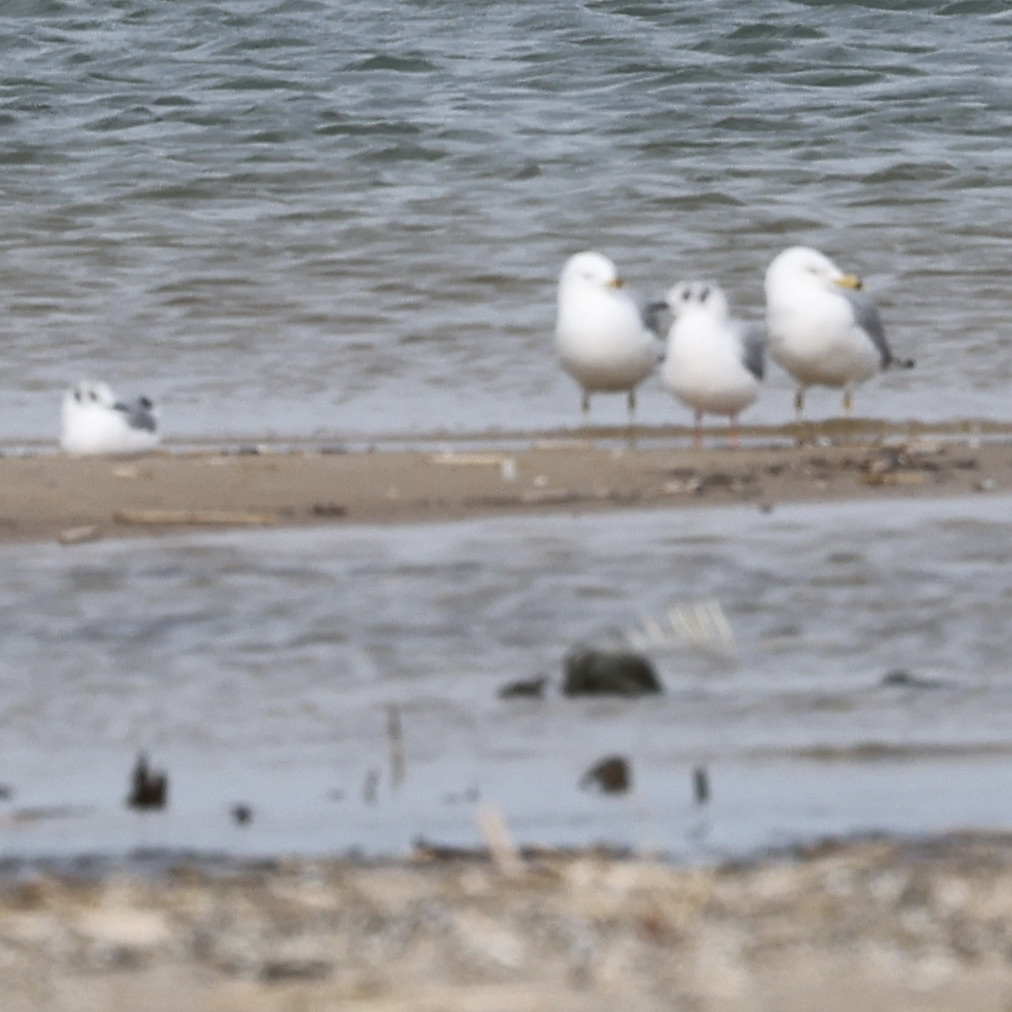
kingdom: Animalia
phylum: Chordata
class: Aves
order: Charadriiformes
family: Laridae
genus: Chroicocephalus
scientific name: Chroicocephalus philadelphia
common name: Bonaparte's gull
